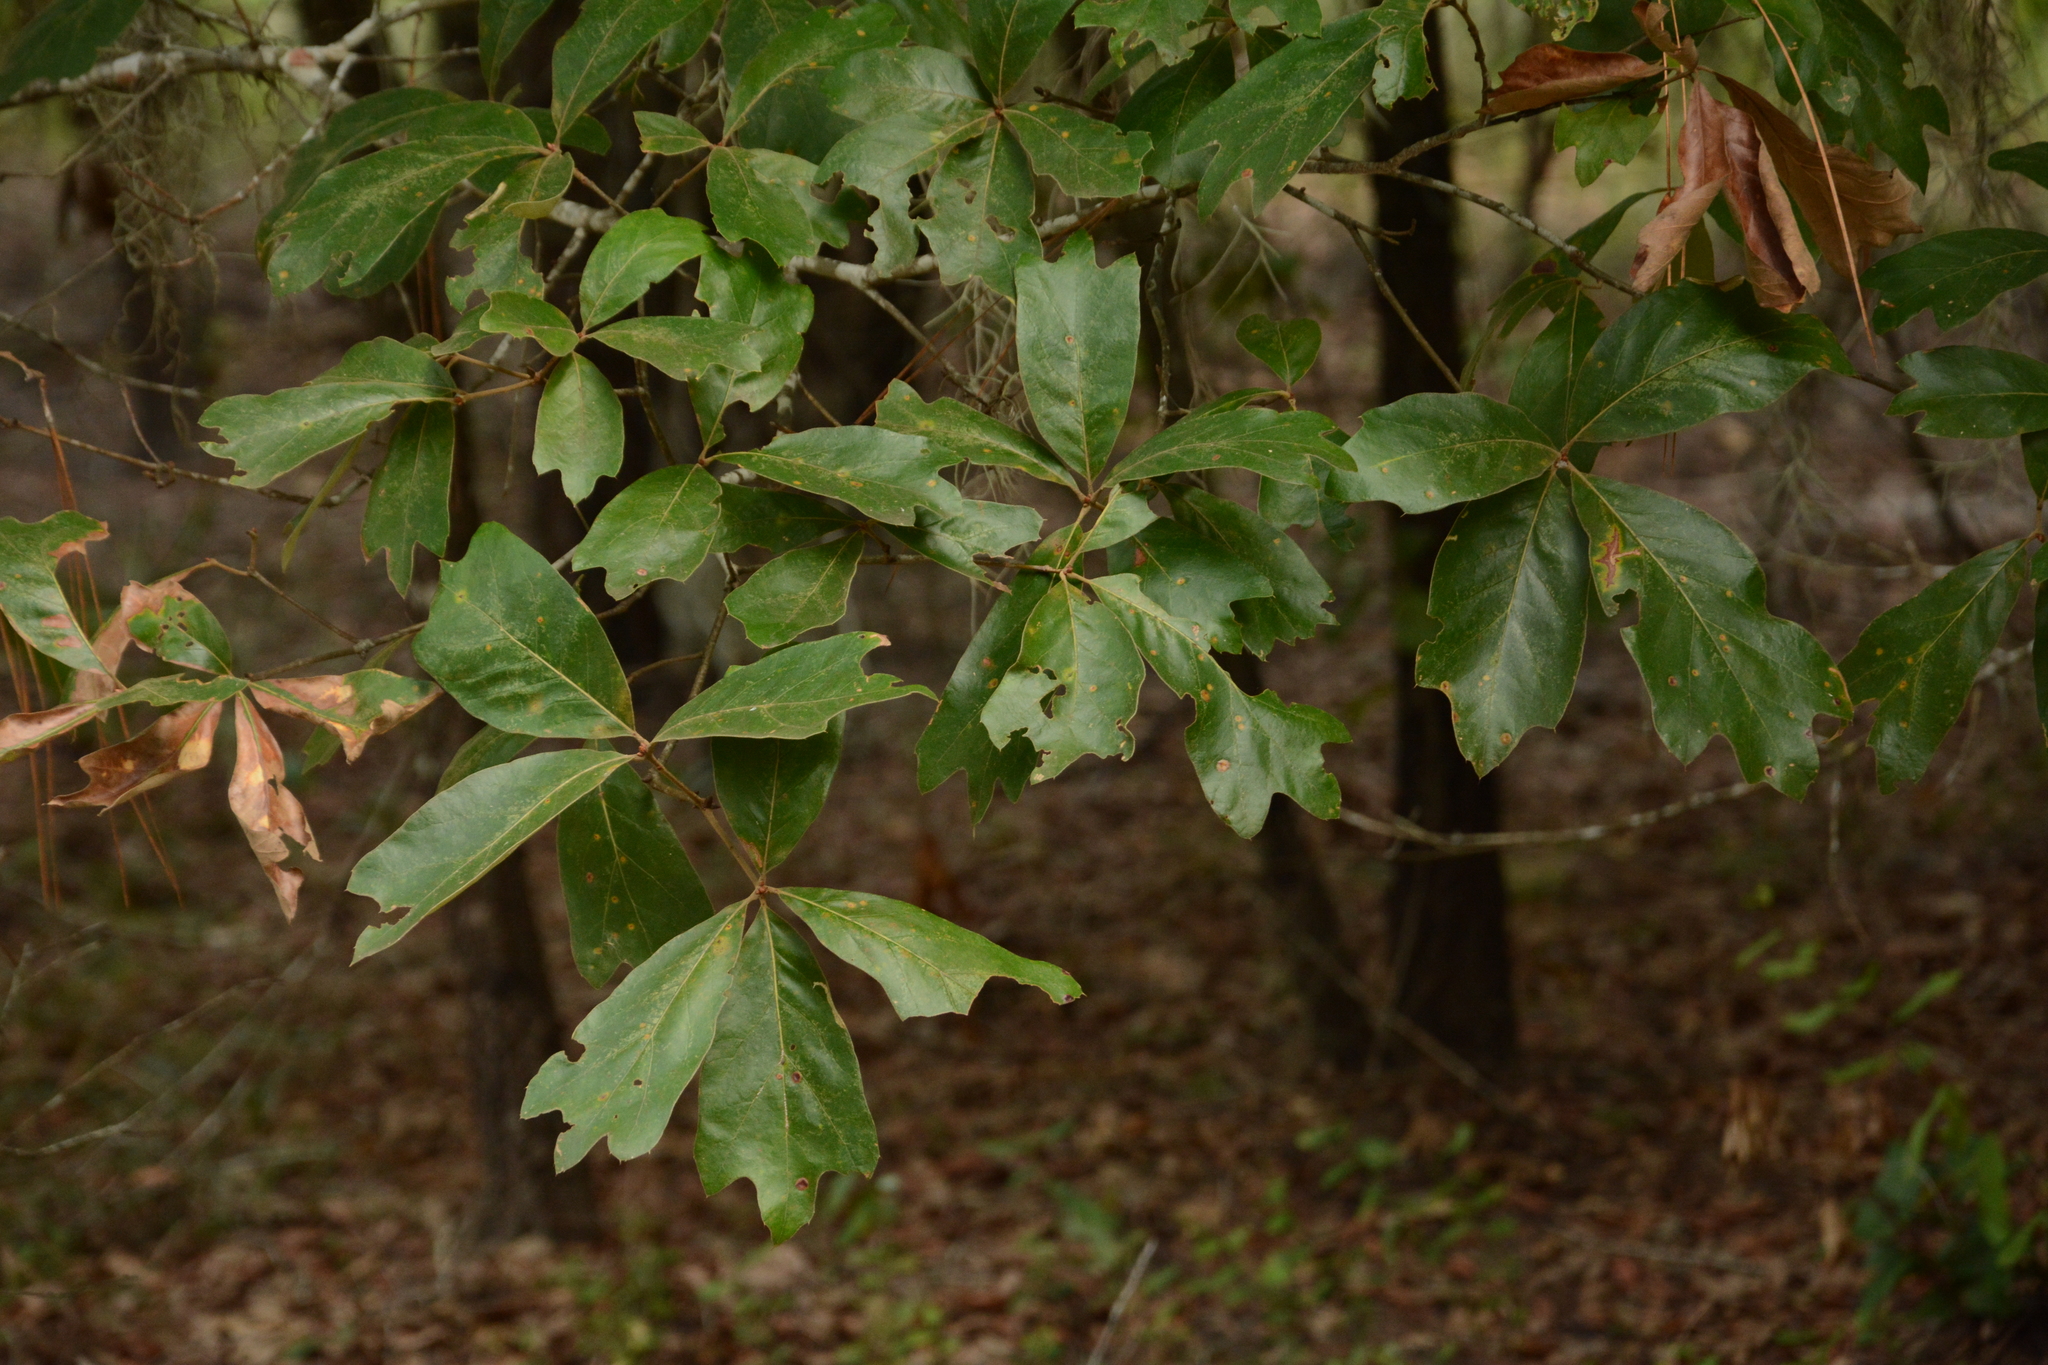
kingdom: Plantae
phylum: Tracheophyta
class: Magnoliopsida
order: Fagales
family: Fagaceae
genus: Quercus
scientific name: Quercus falcata
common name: Southern red oak
